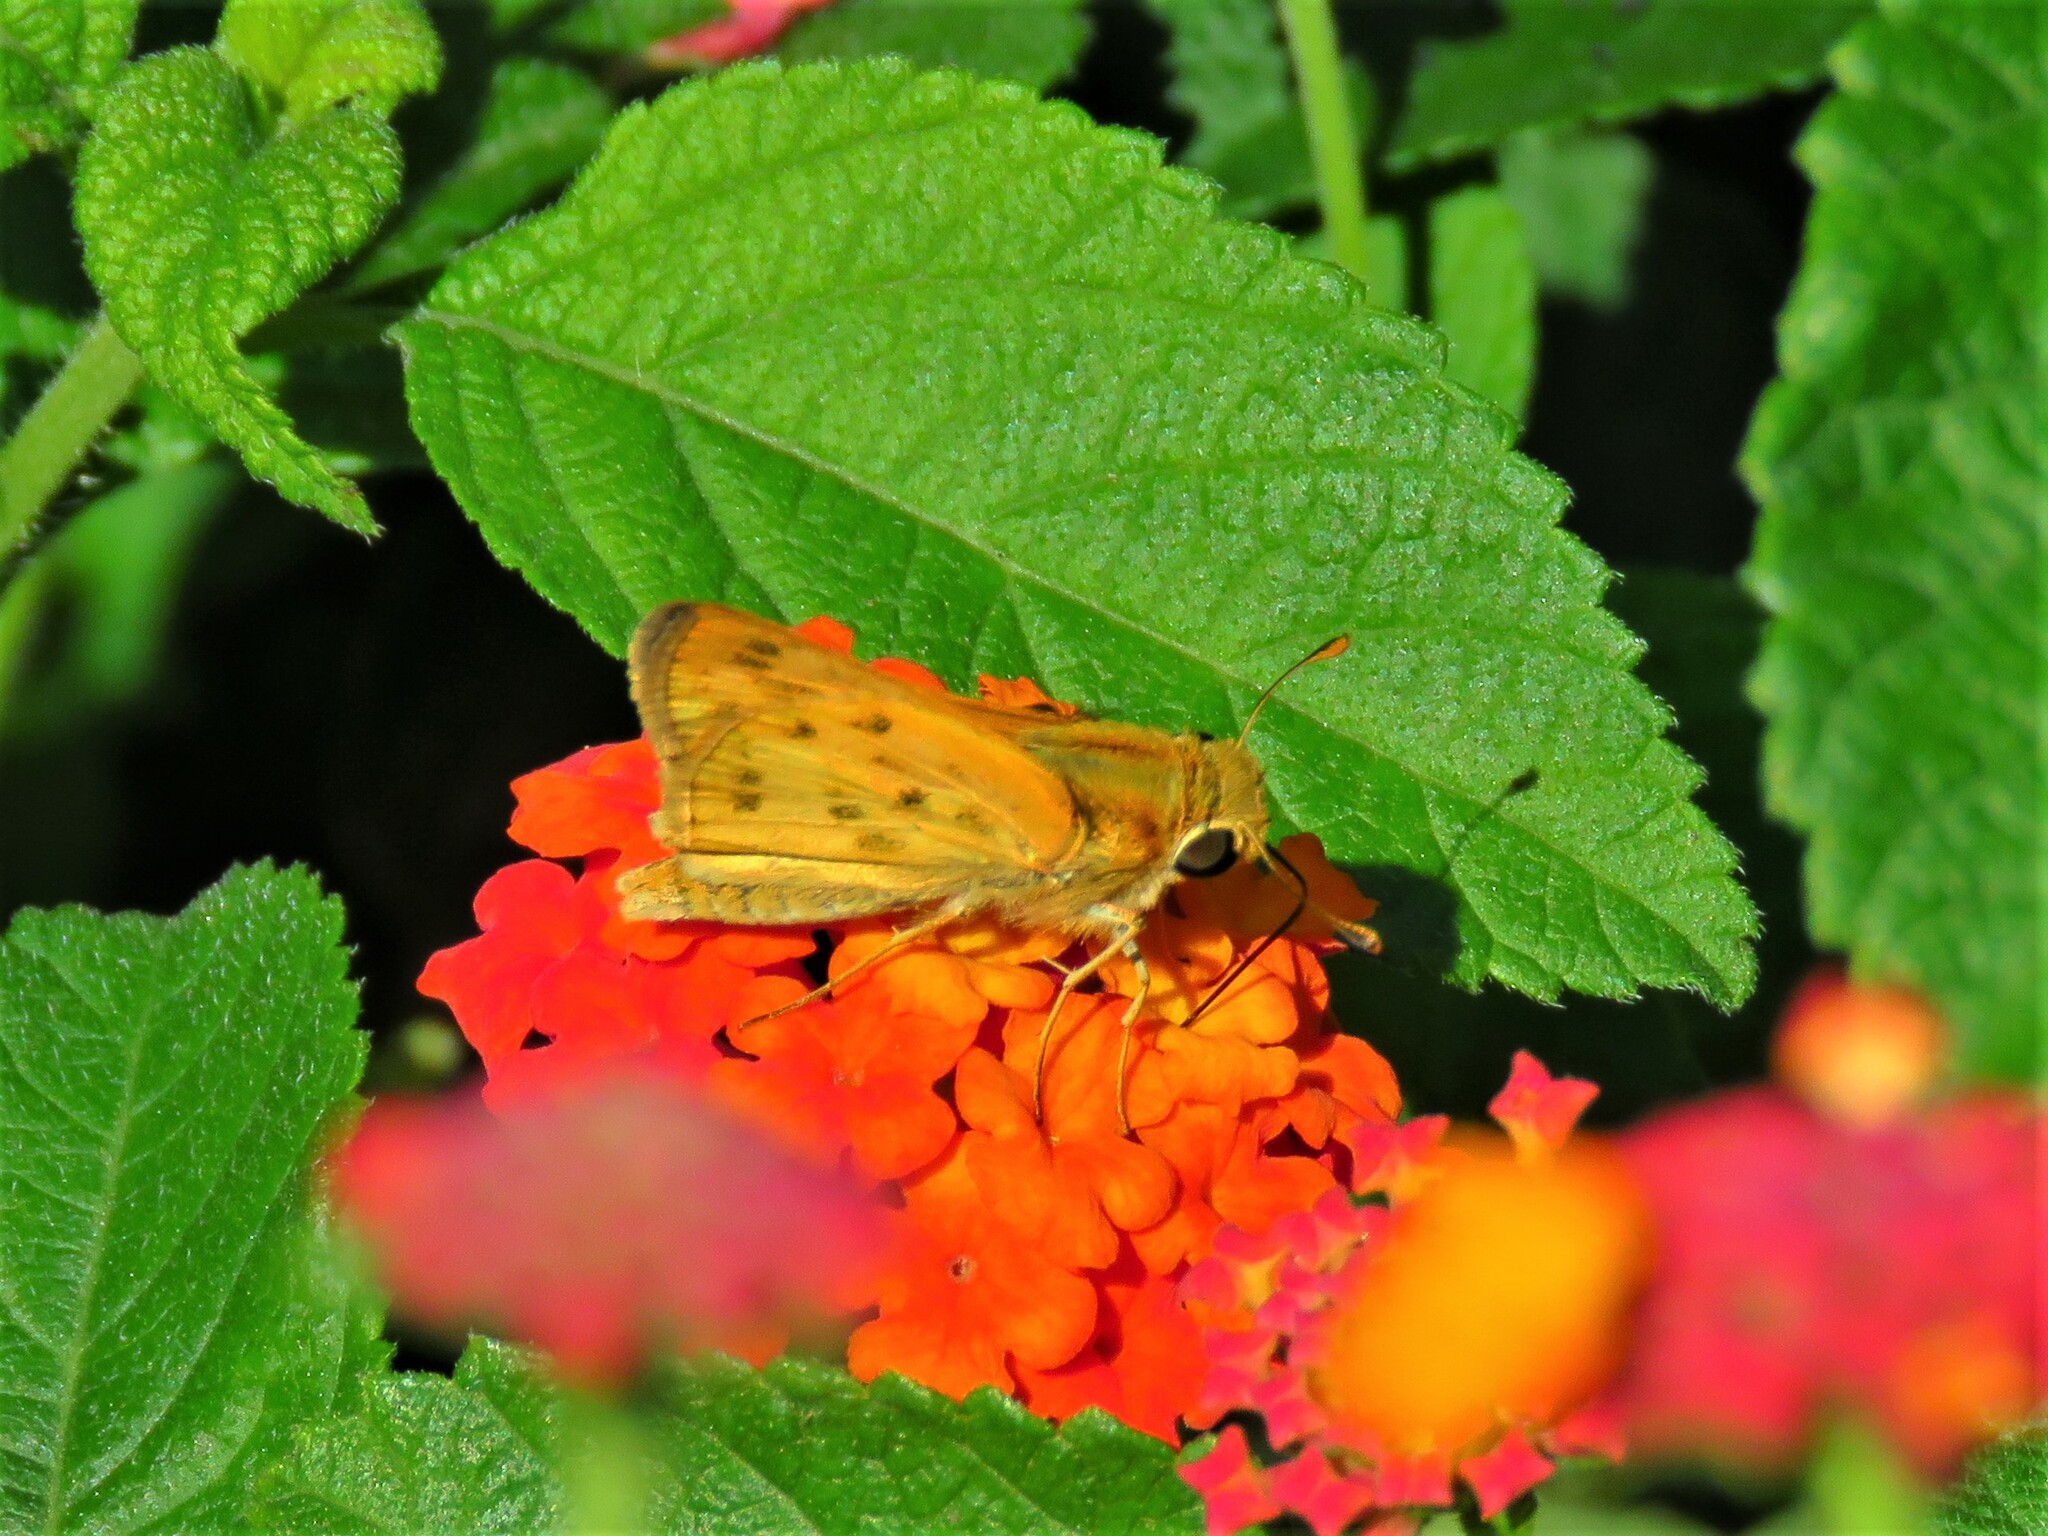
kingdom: Animalia
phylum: Arthropoda
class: Insecta
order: Lepidoptera
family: Hesperiidae
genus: Hylephila
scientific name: Hylephila phyleus
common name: Fiery skipper
